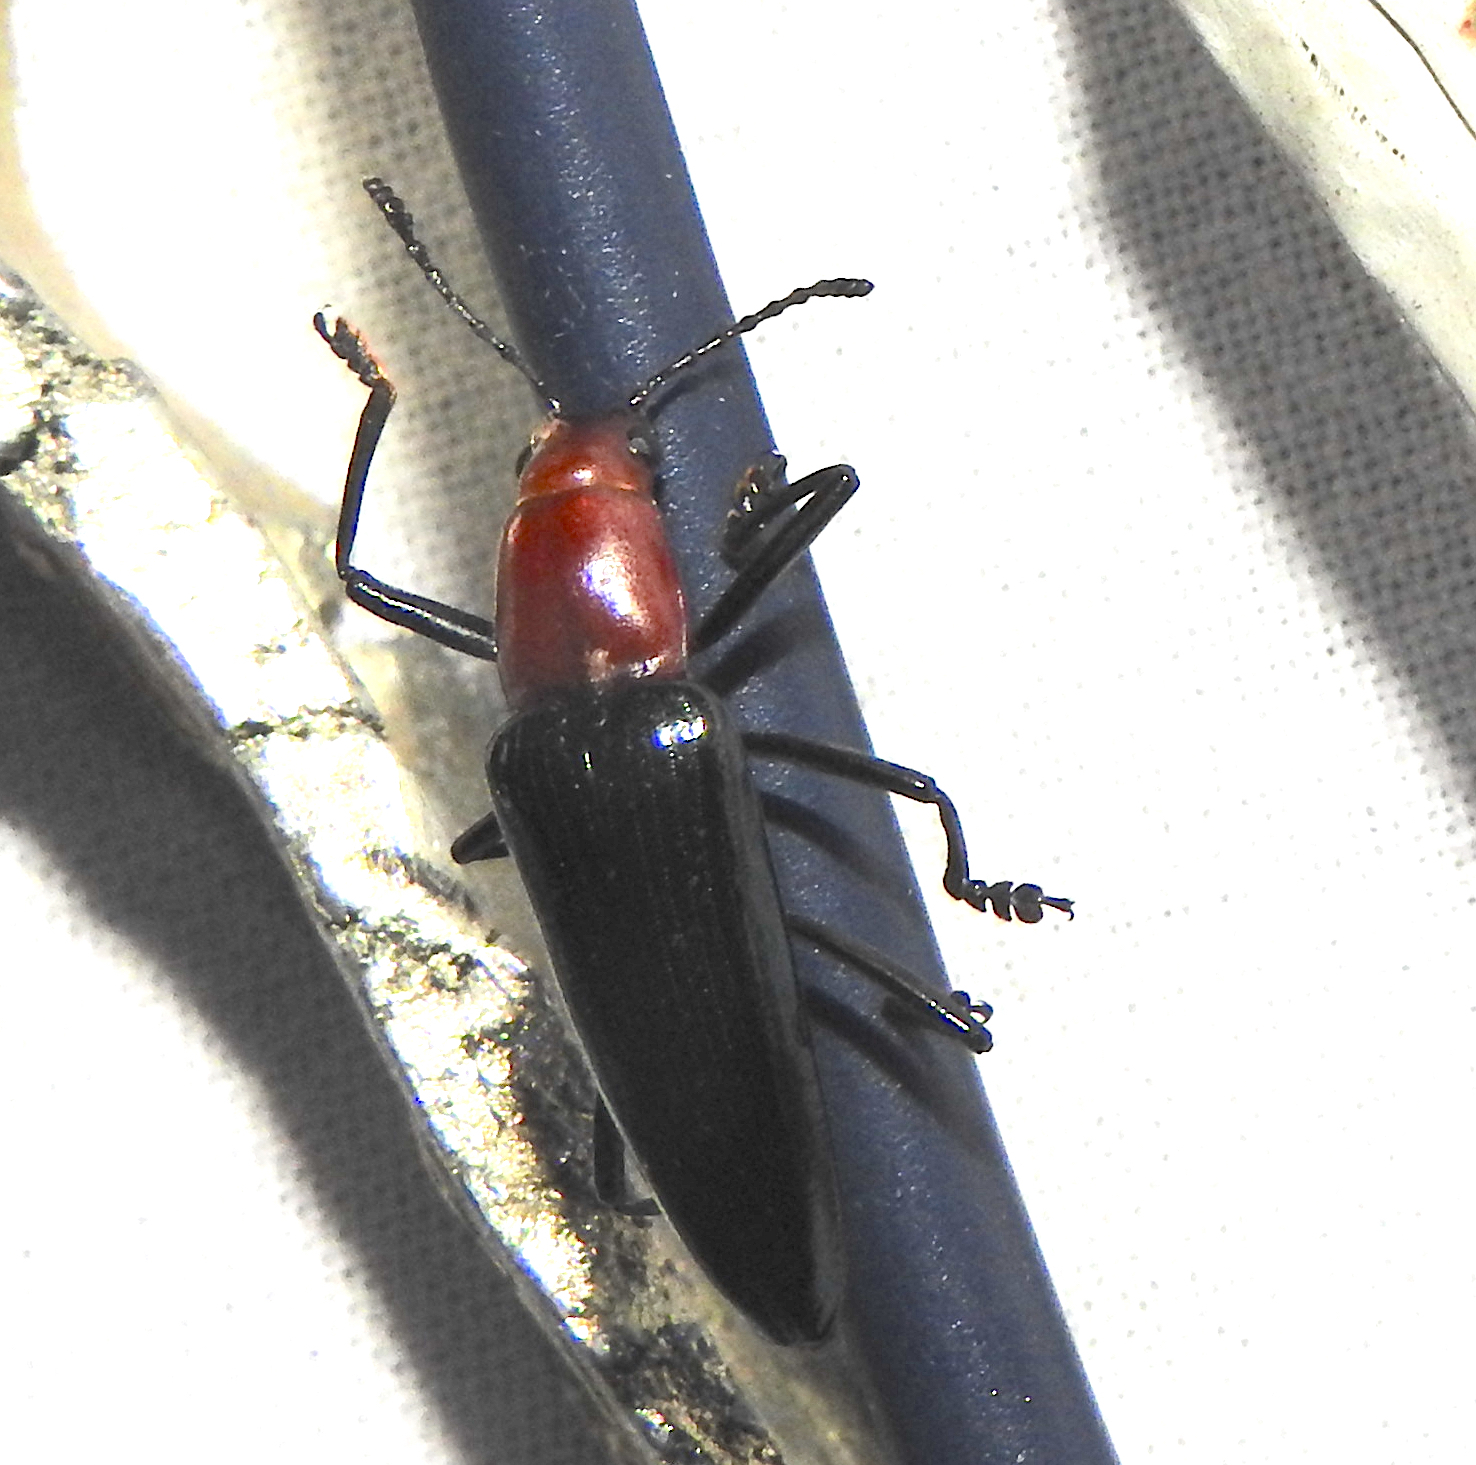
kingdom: Animalia
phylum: Arthropoda
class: Insecta
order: Coleoptera
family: Erotylidae
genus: Fatua
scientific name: Fatua
